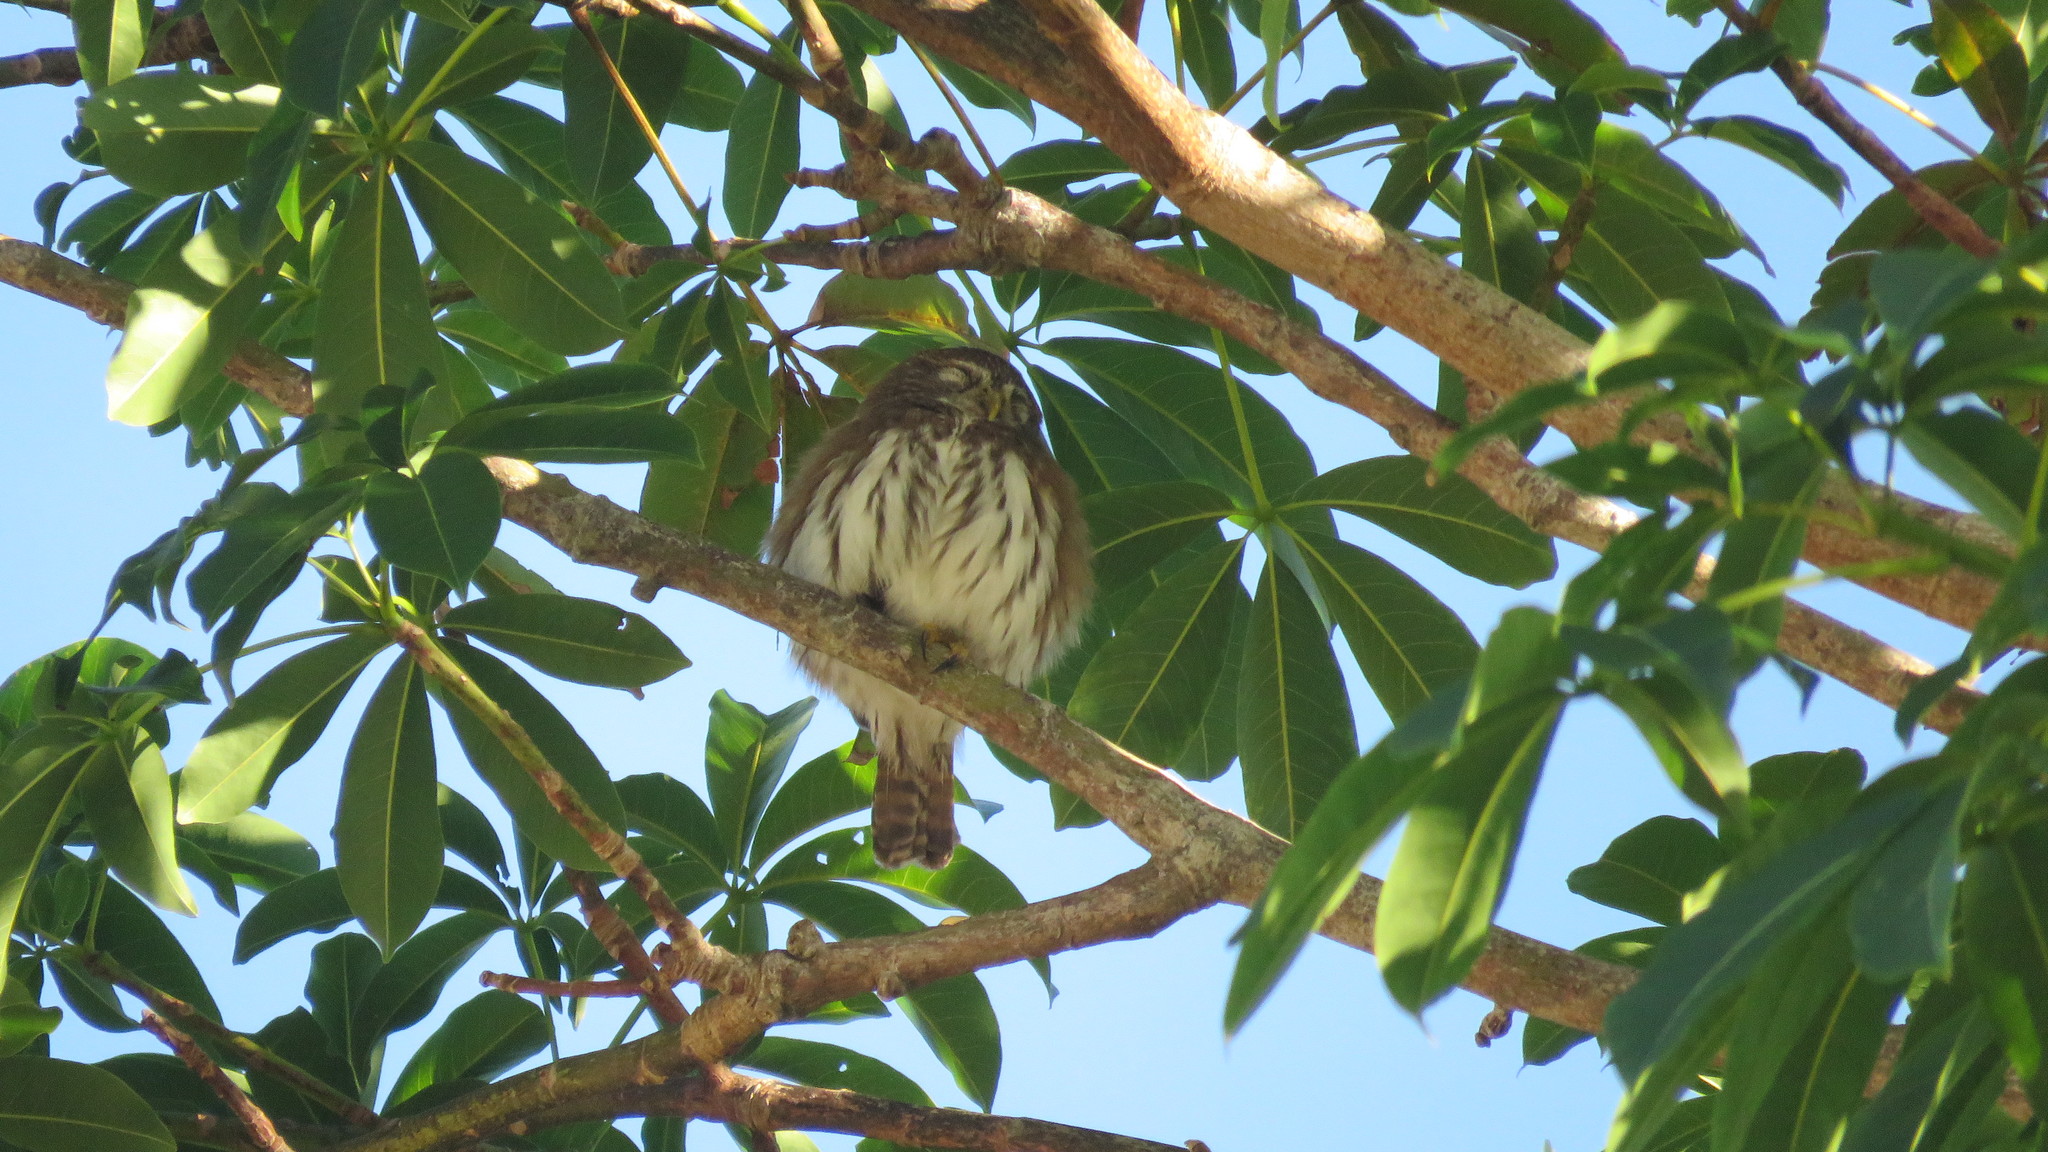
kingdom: Animalia
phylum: Chordata
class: Aves
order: Strigiformes
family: Strigidae
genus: Glaucidium
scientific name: Glaucidium brasilianum
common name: Ferruginous pygmy-owl
